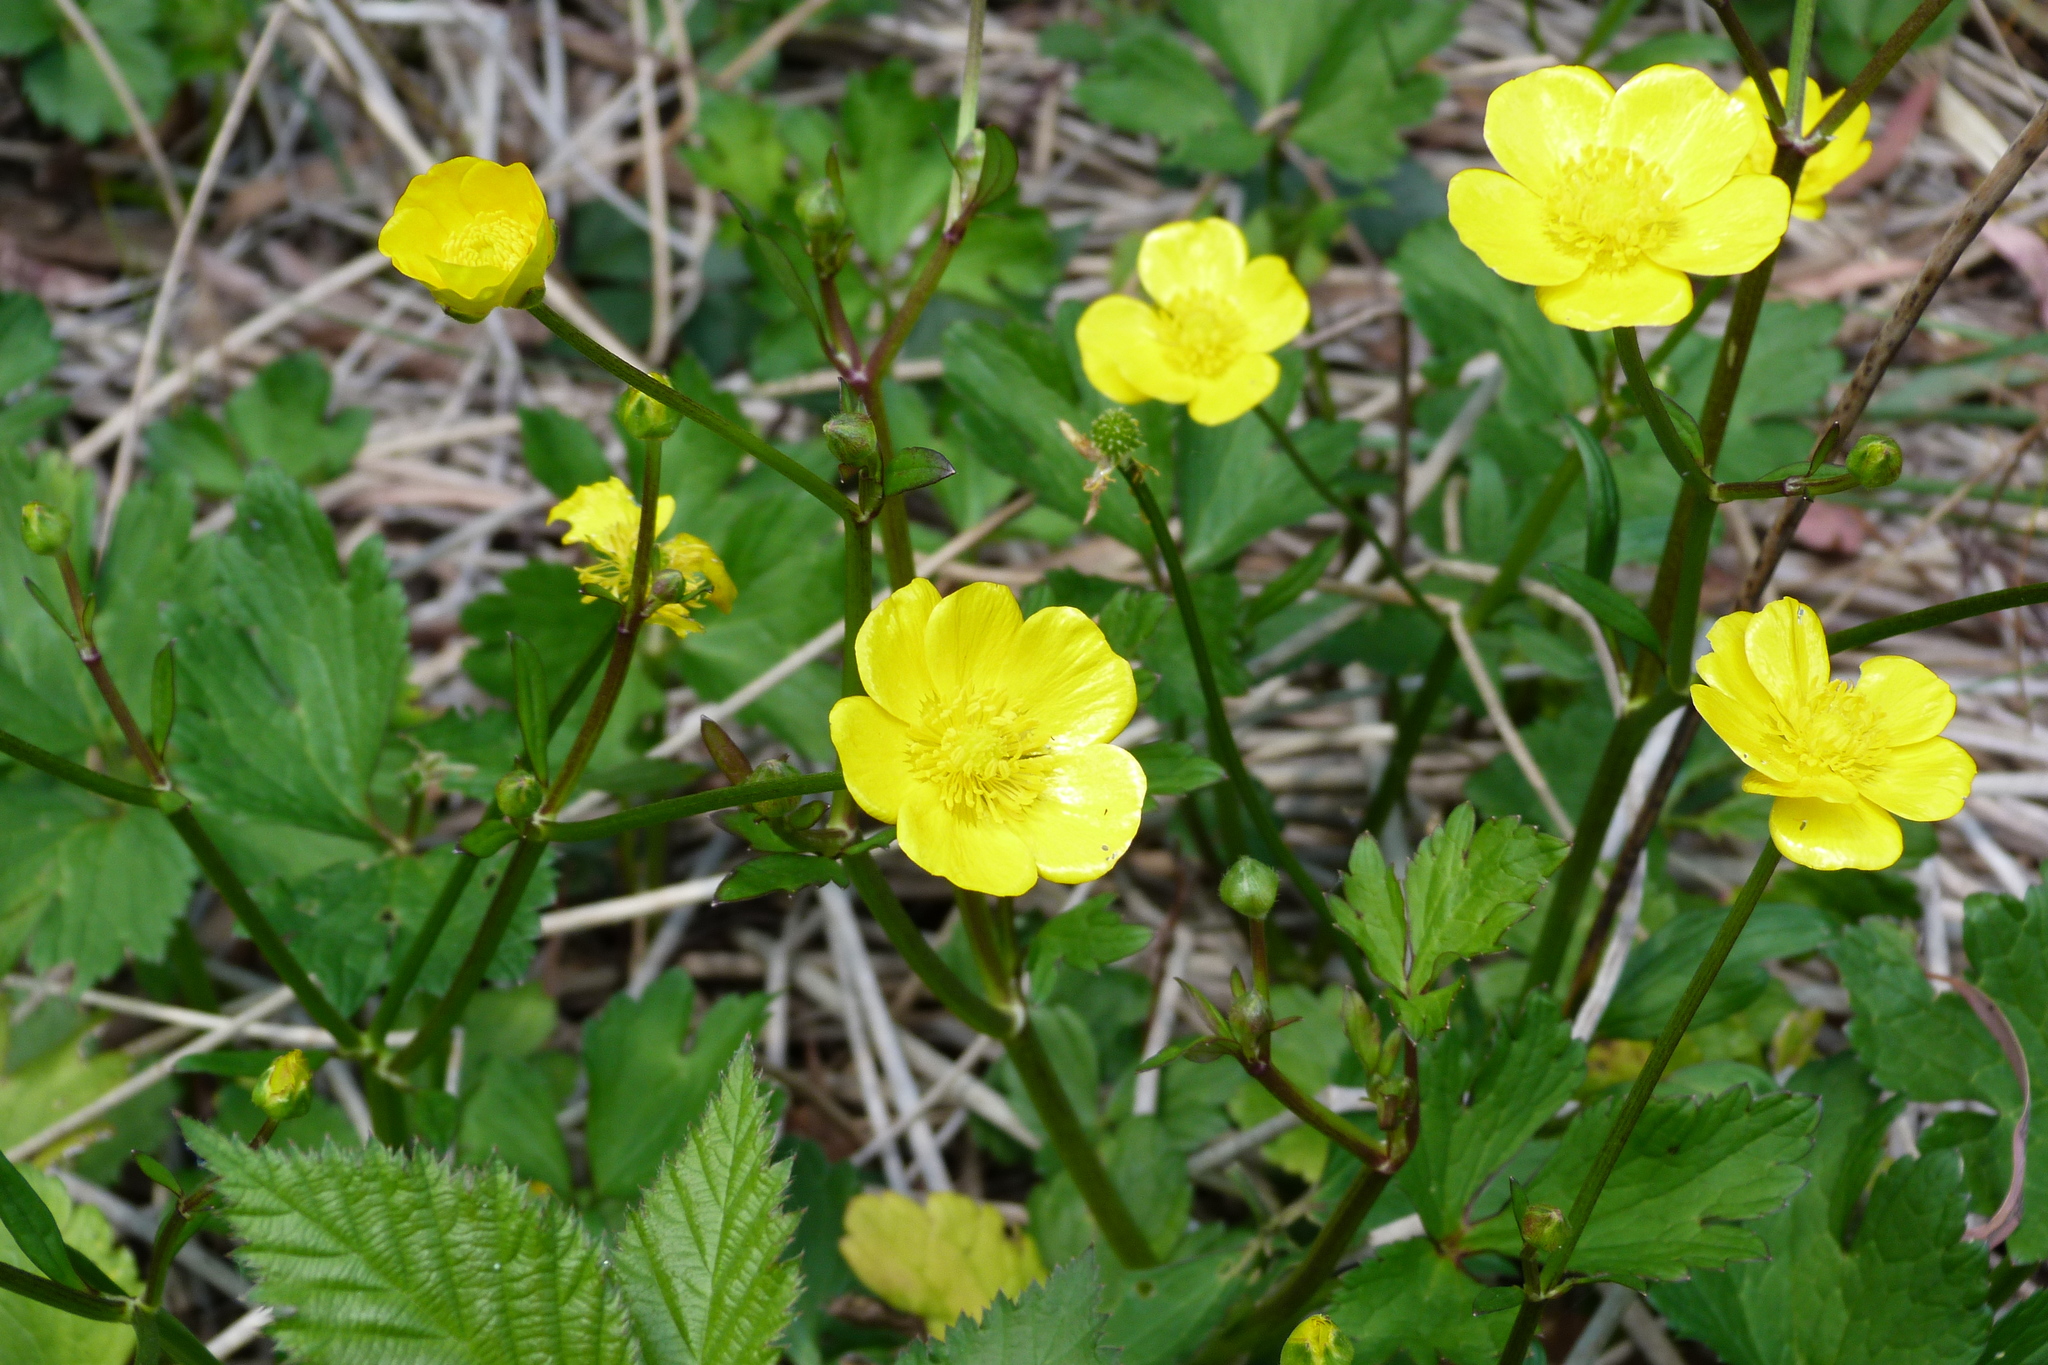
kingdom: Plantae
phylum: Tracheophyta
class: Magnoliopsida
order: Ranunculales
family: Ranunculaceae
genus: Ranunculus
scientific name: Ranunculus
